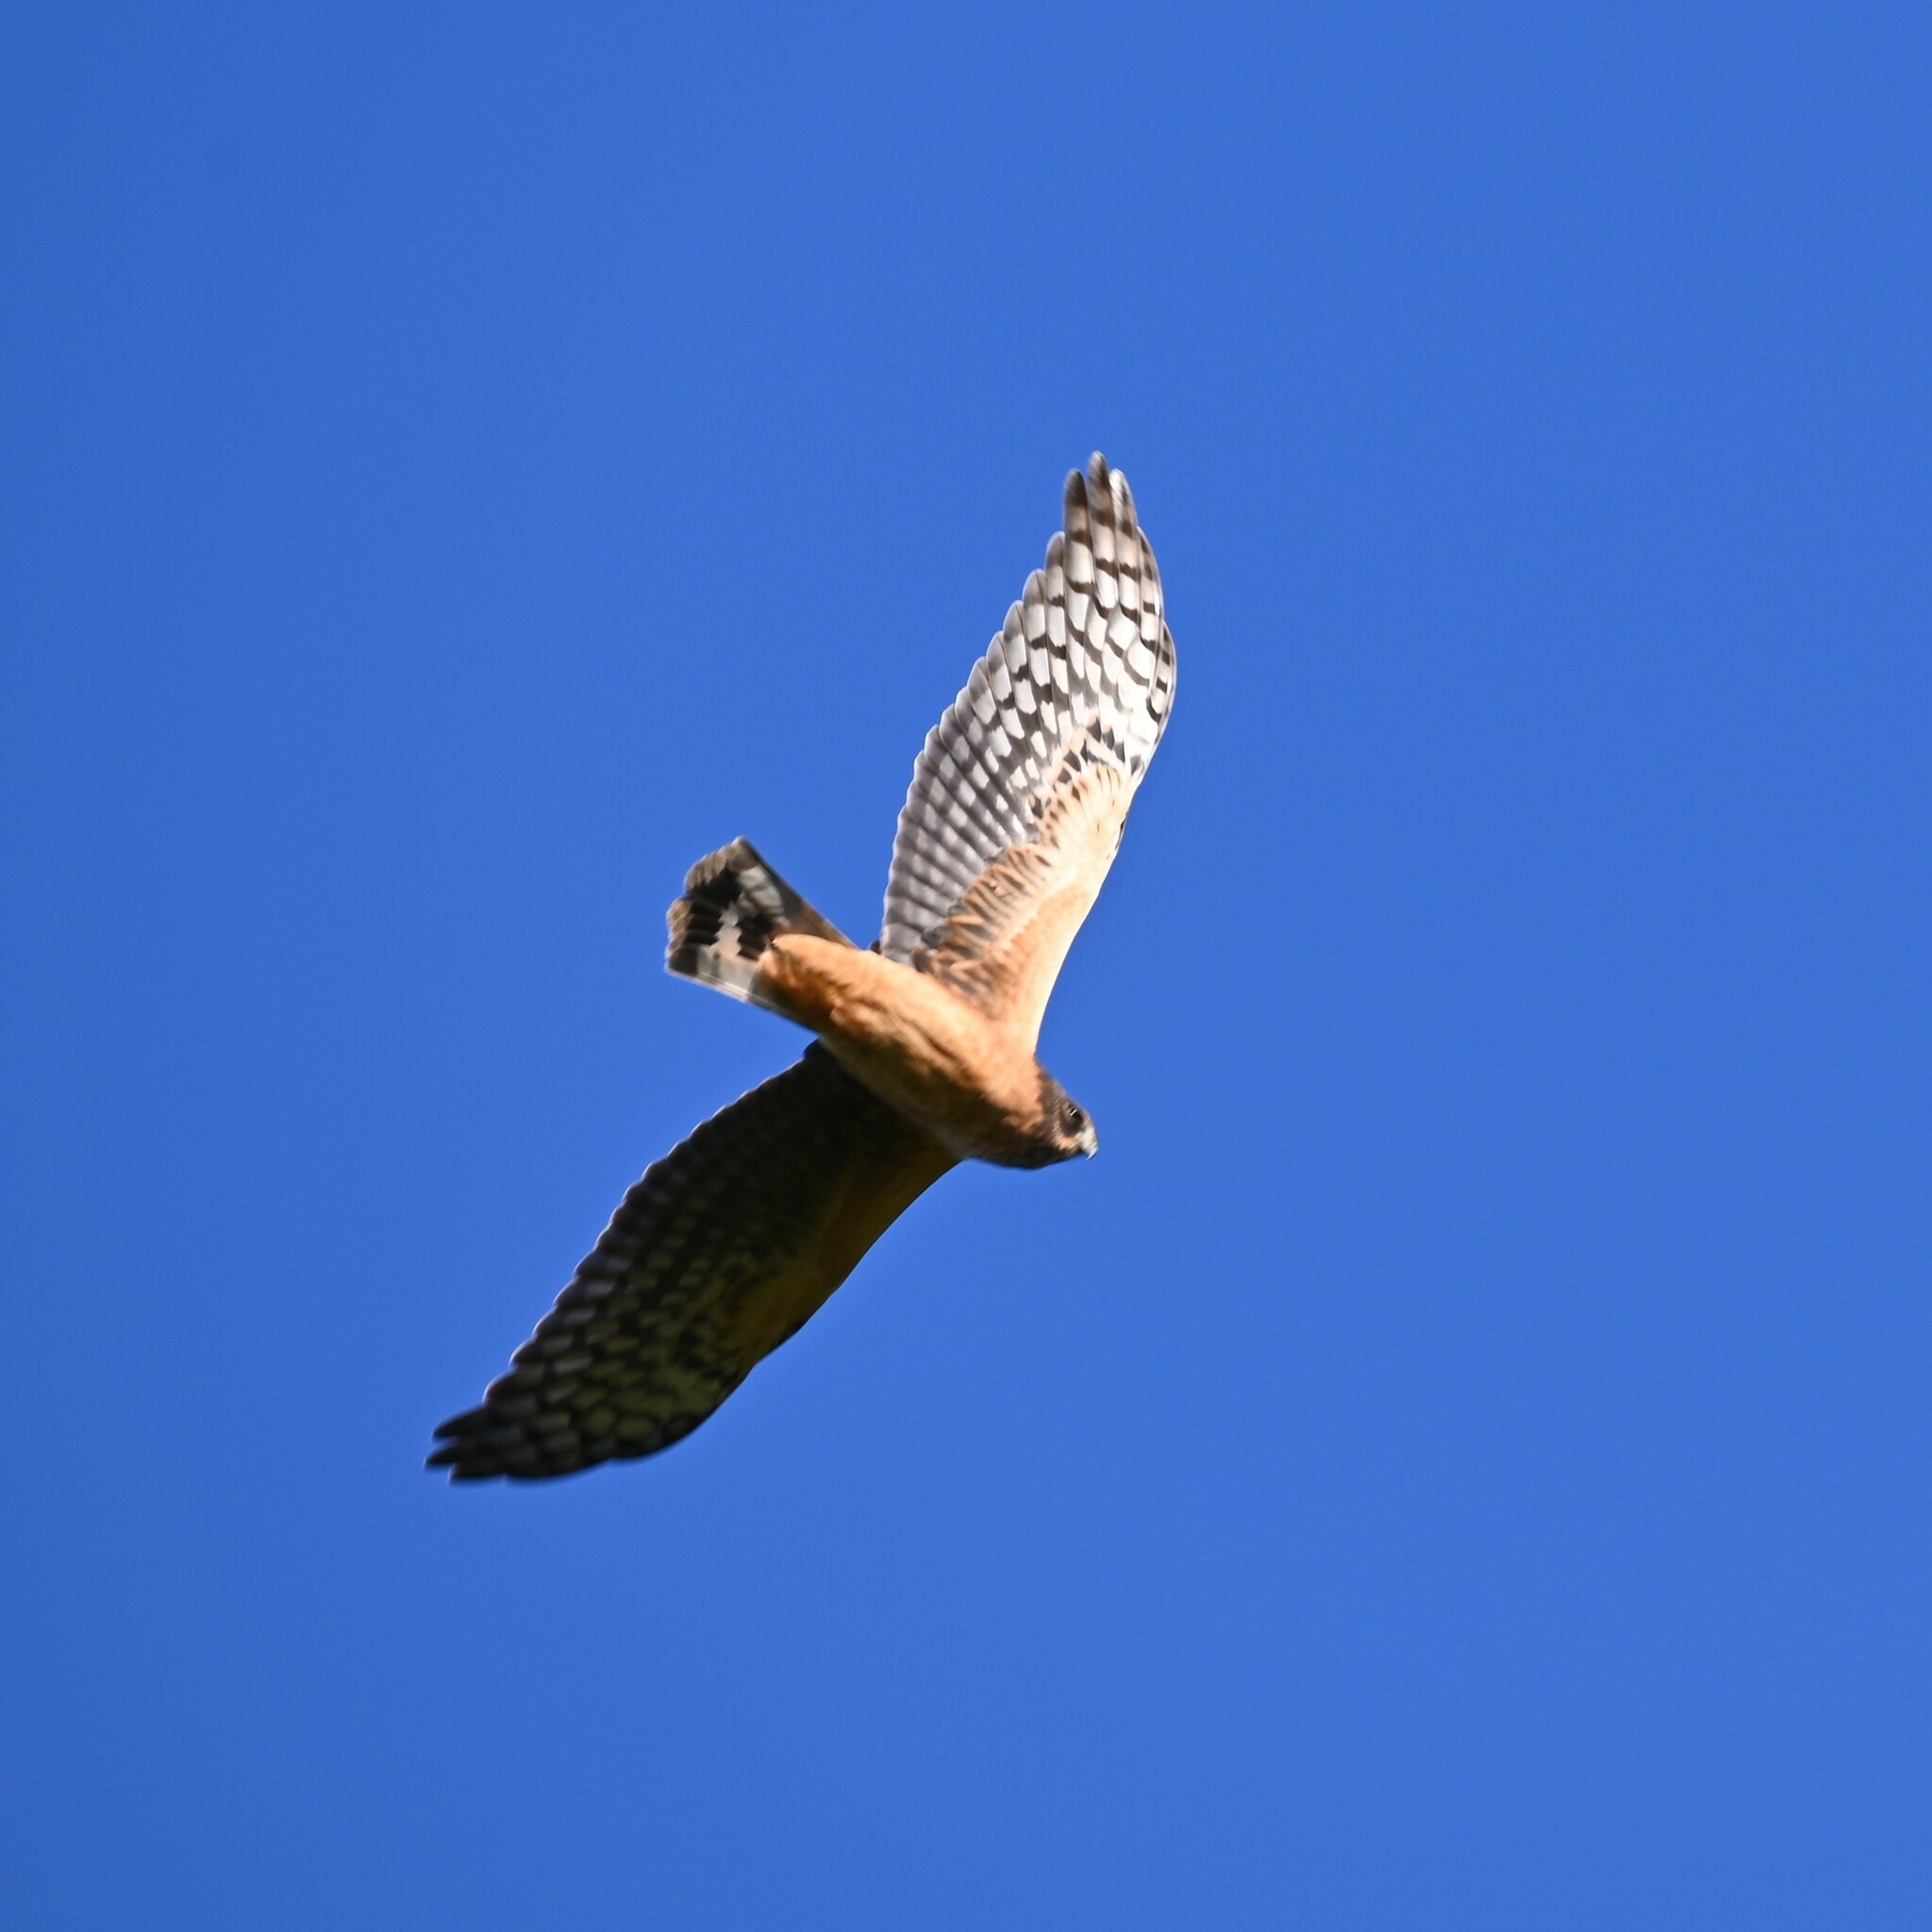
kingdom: Animalia
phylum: Chordata
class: Aves
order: Accipitriformes
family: Accipitridae
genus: Circus
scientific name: Circus cyaneus
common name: Hen harrier
